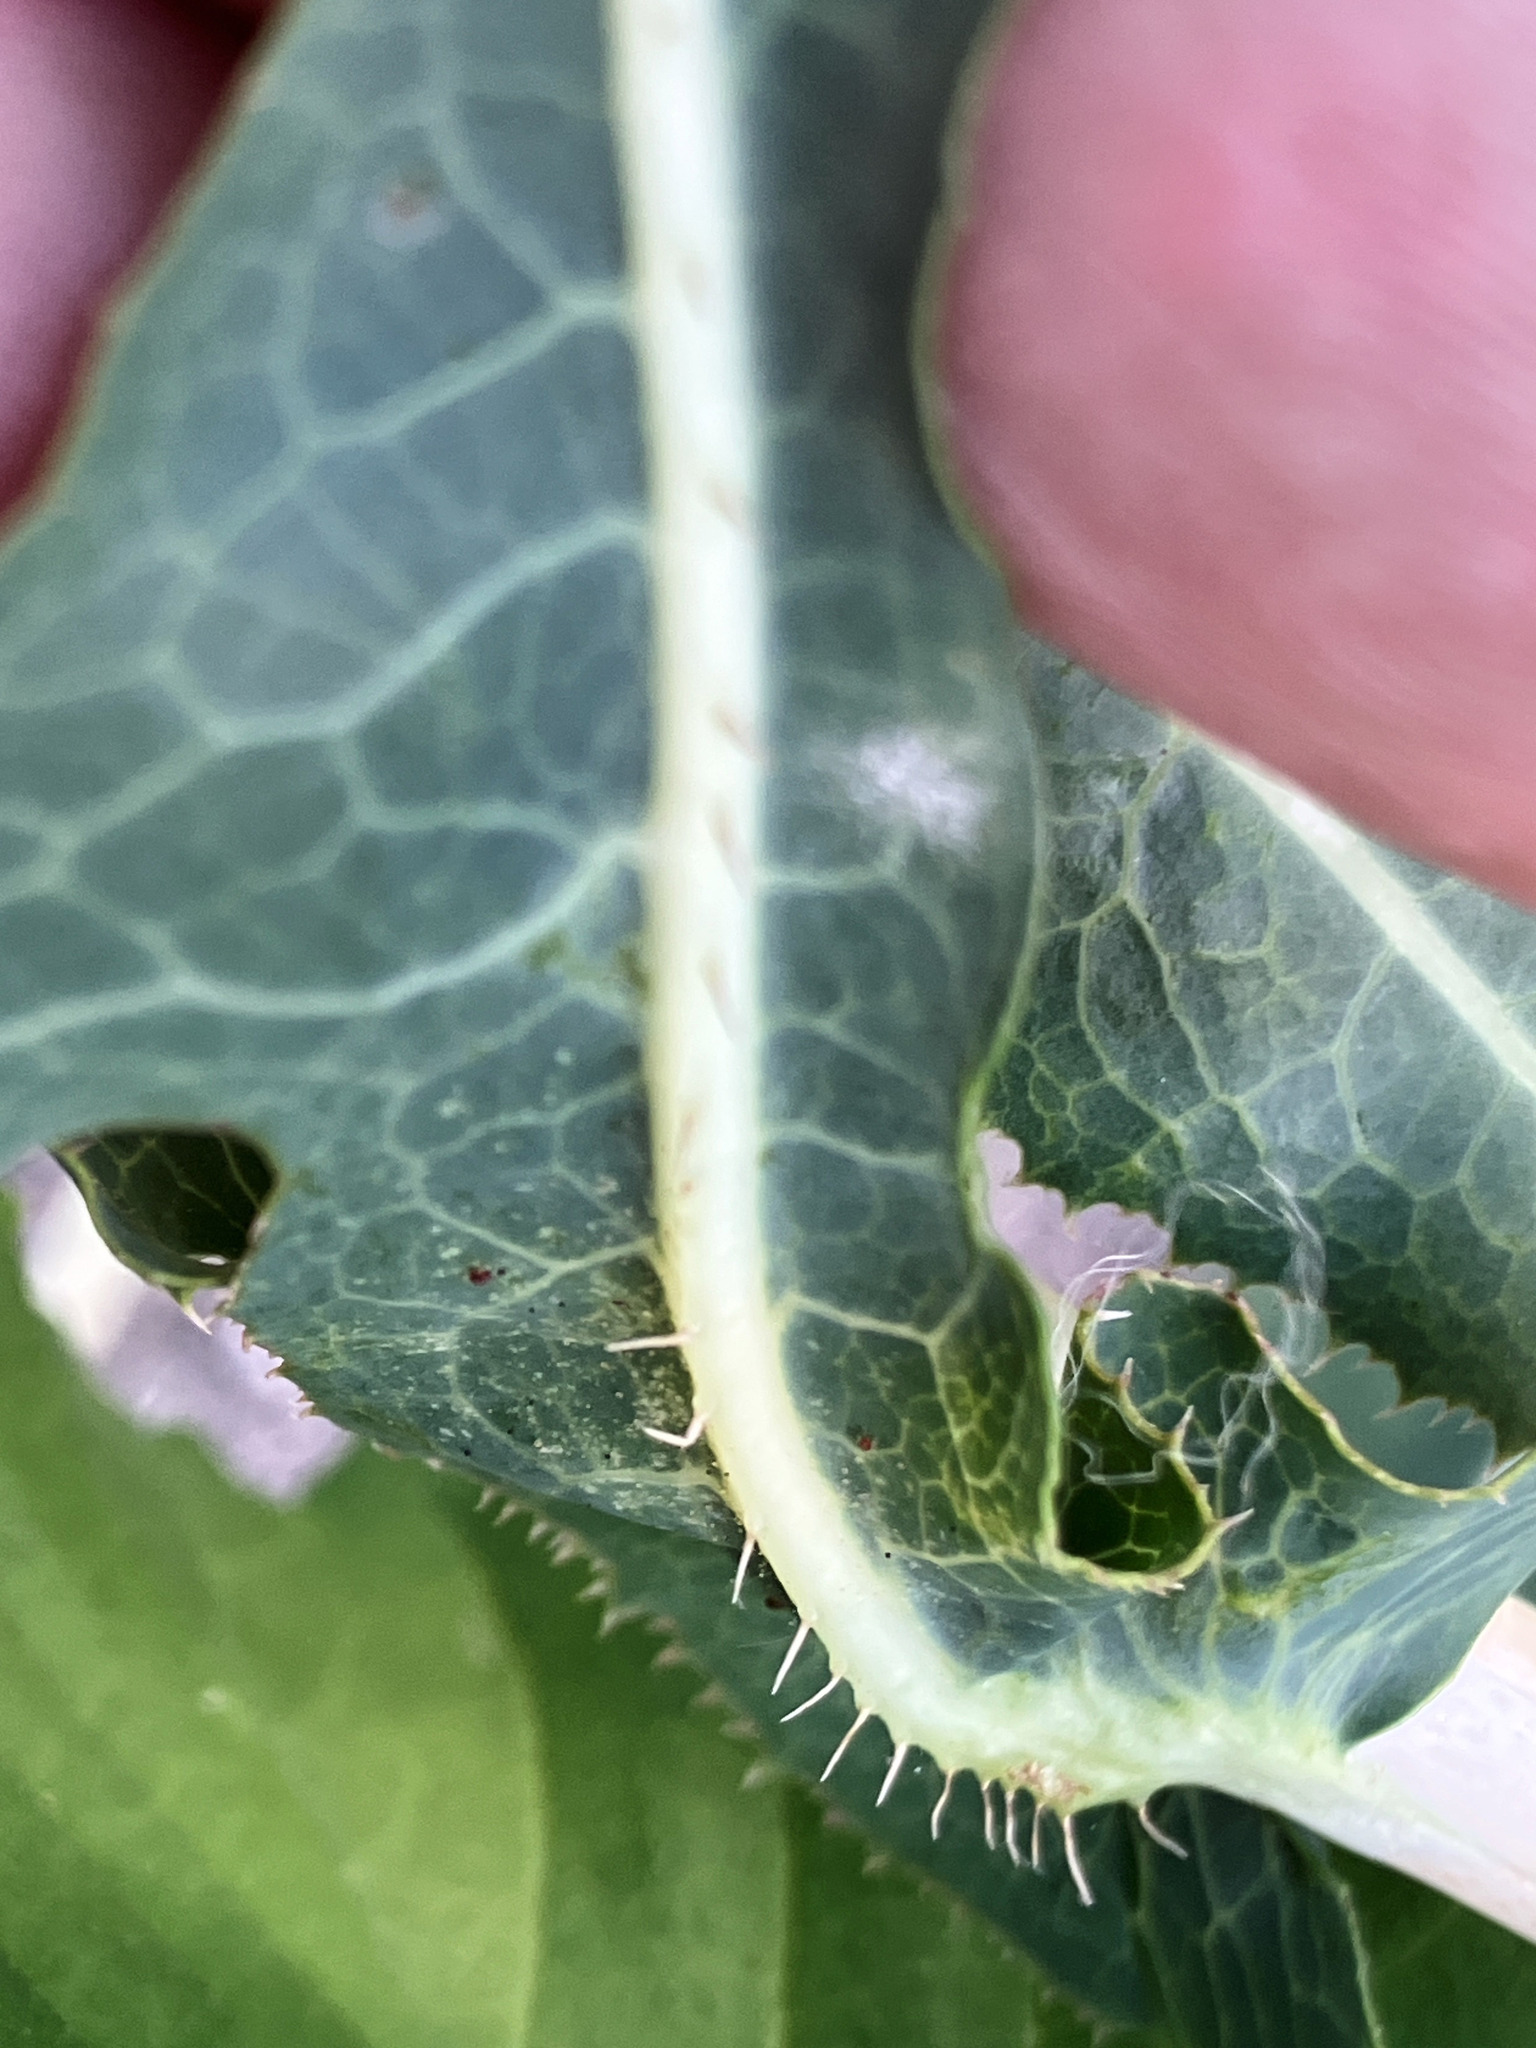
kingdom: Plantae
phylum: Tracheophyta
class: Magnoliopsida
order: Asterales
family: Asteraceae
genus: Lactuca
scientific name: Lactuca serriola
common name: Prickly lettuce
